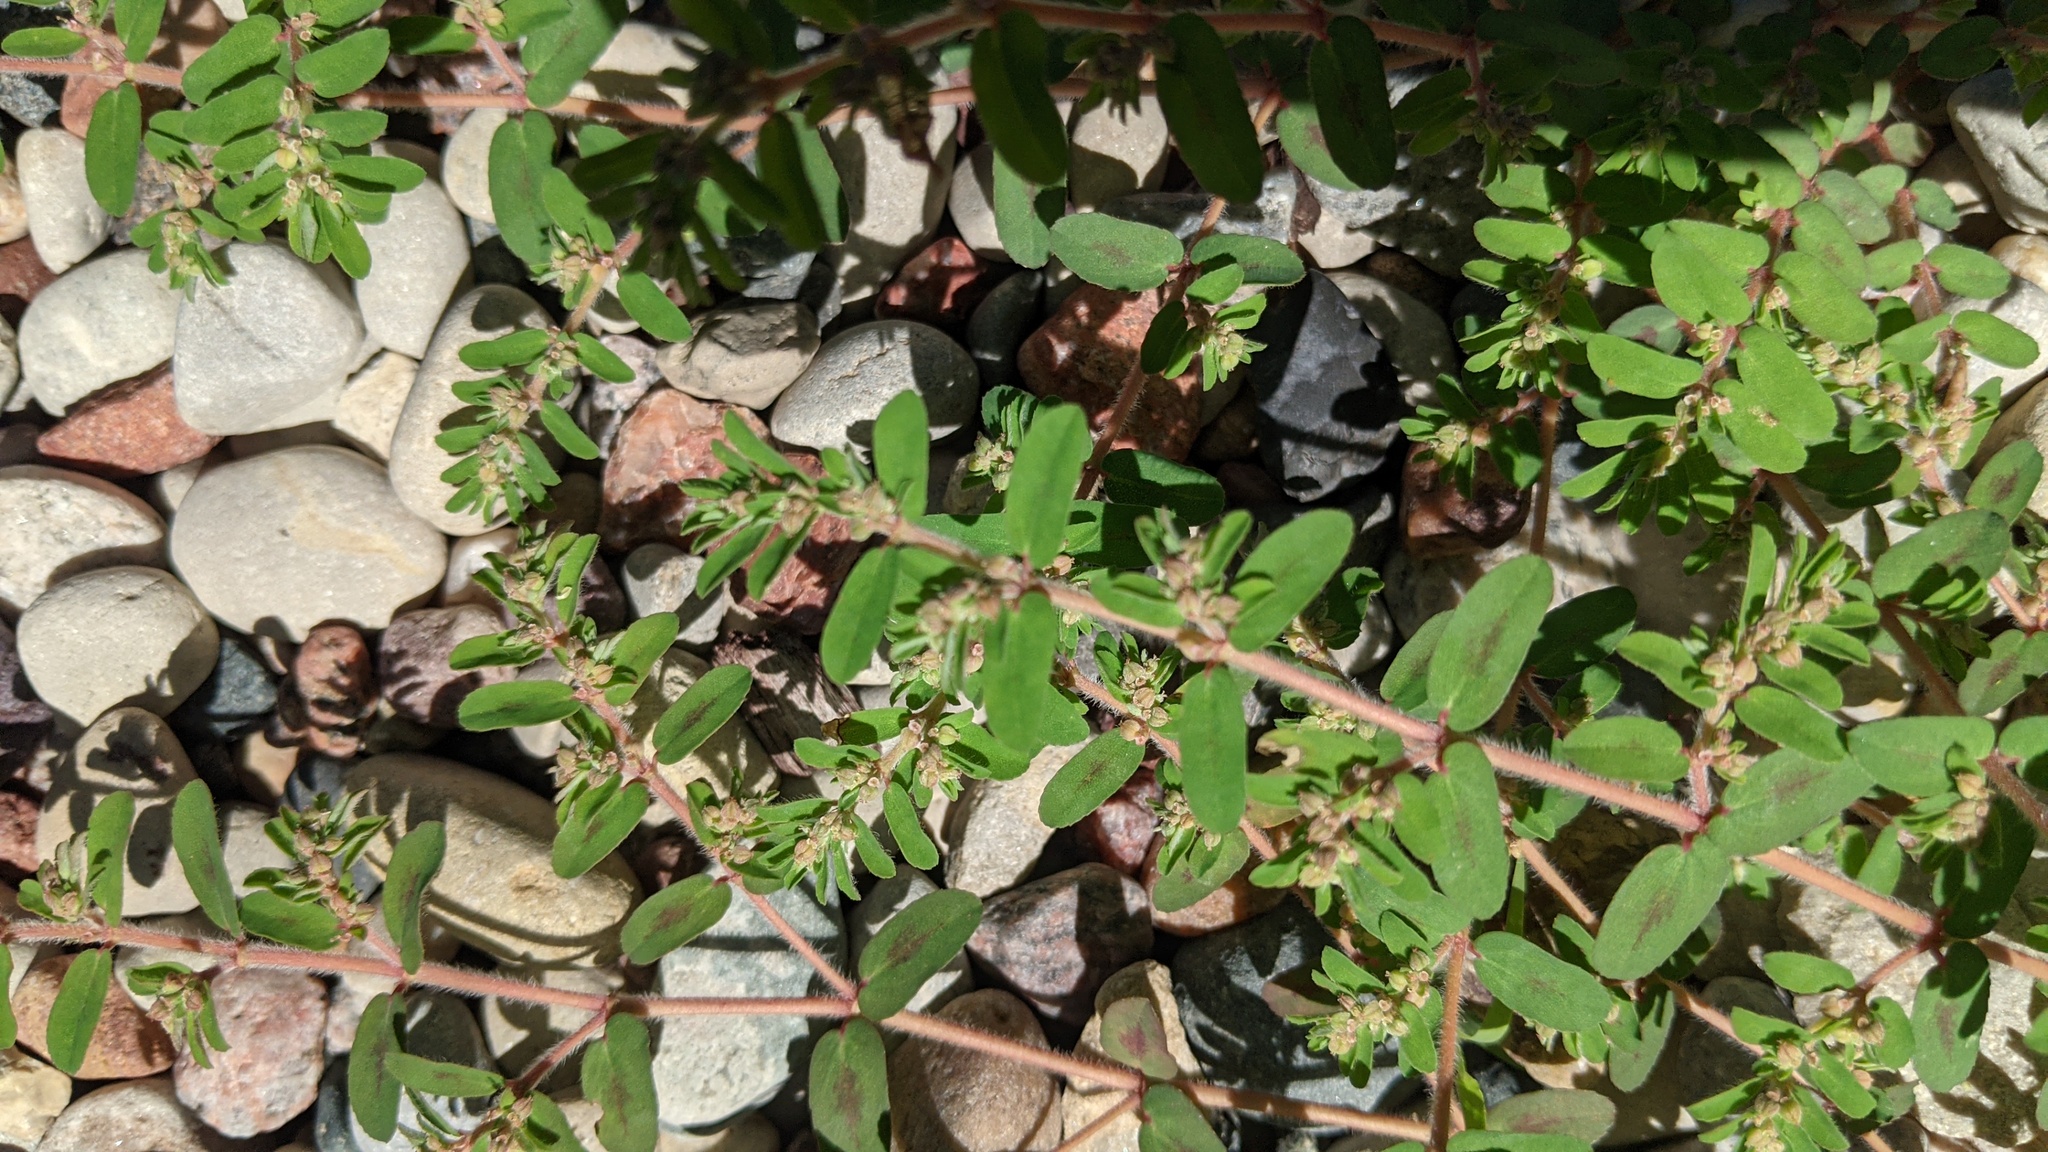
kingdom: Plantae
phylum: Tracheophyta
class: Magnoliopsida
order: Malpighiales
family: Euphorbiaceae
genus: Euphorbia
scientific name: Euphorbia maculata
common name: Spotted spurge
